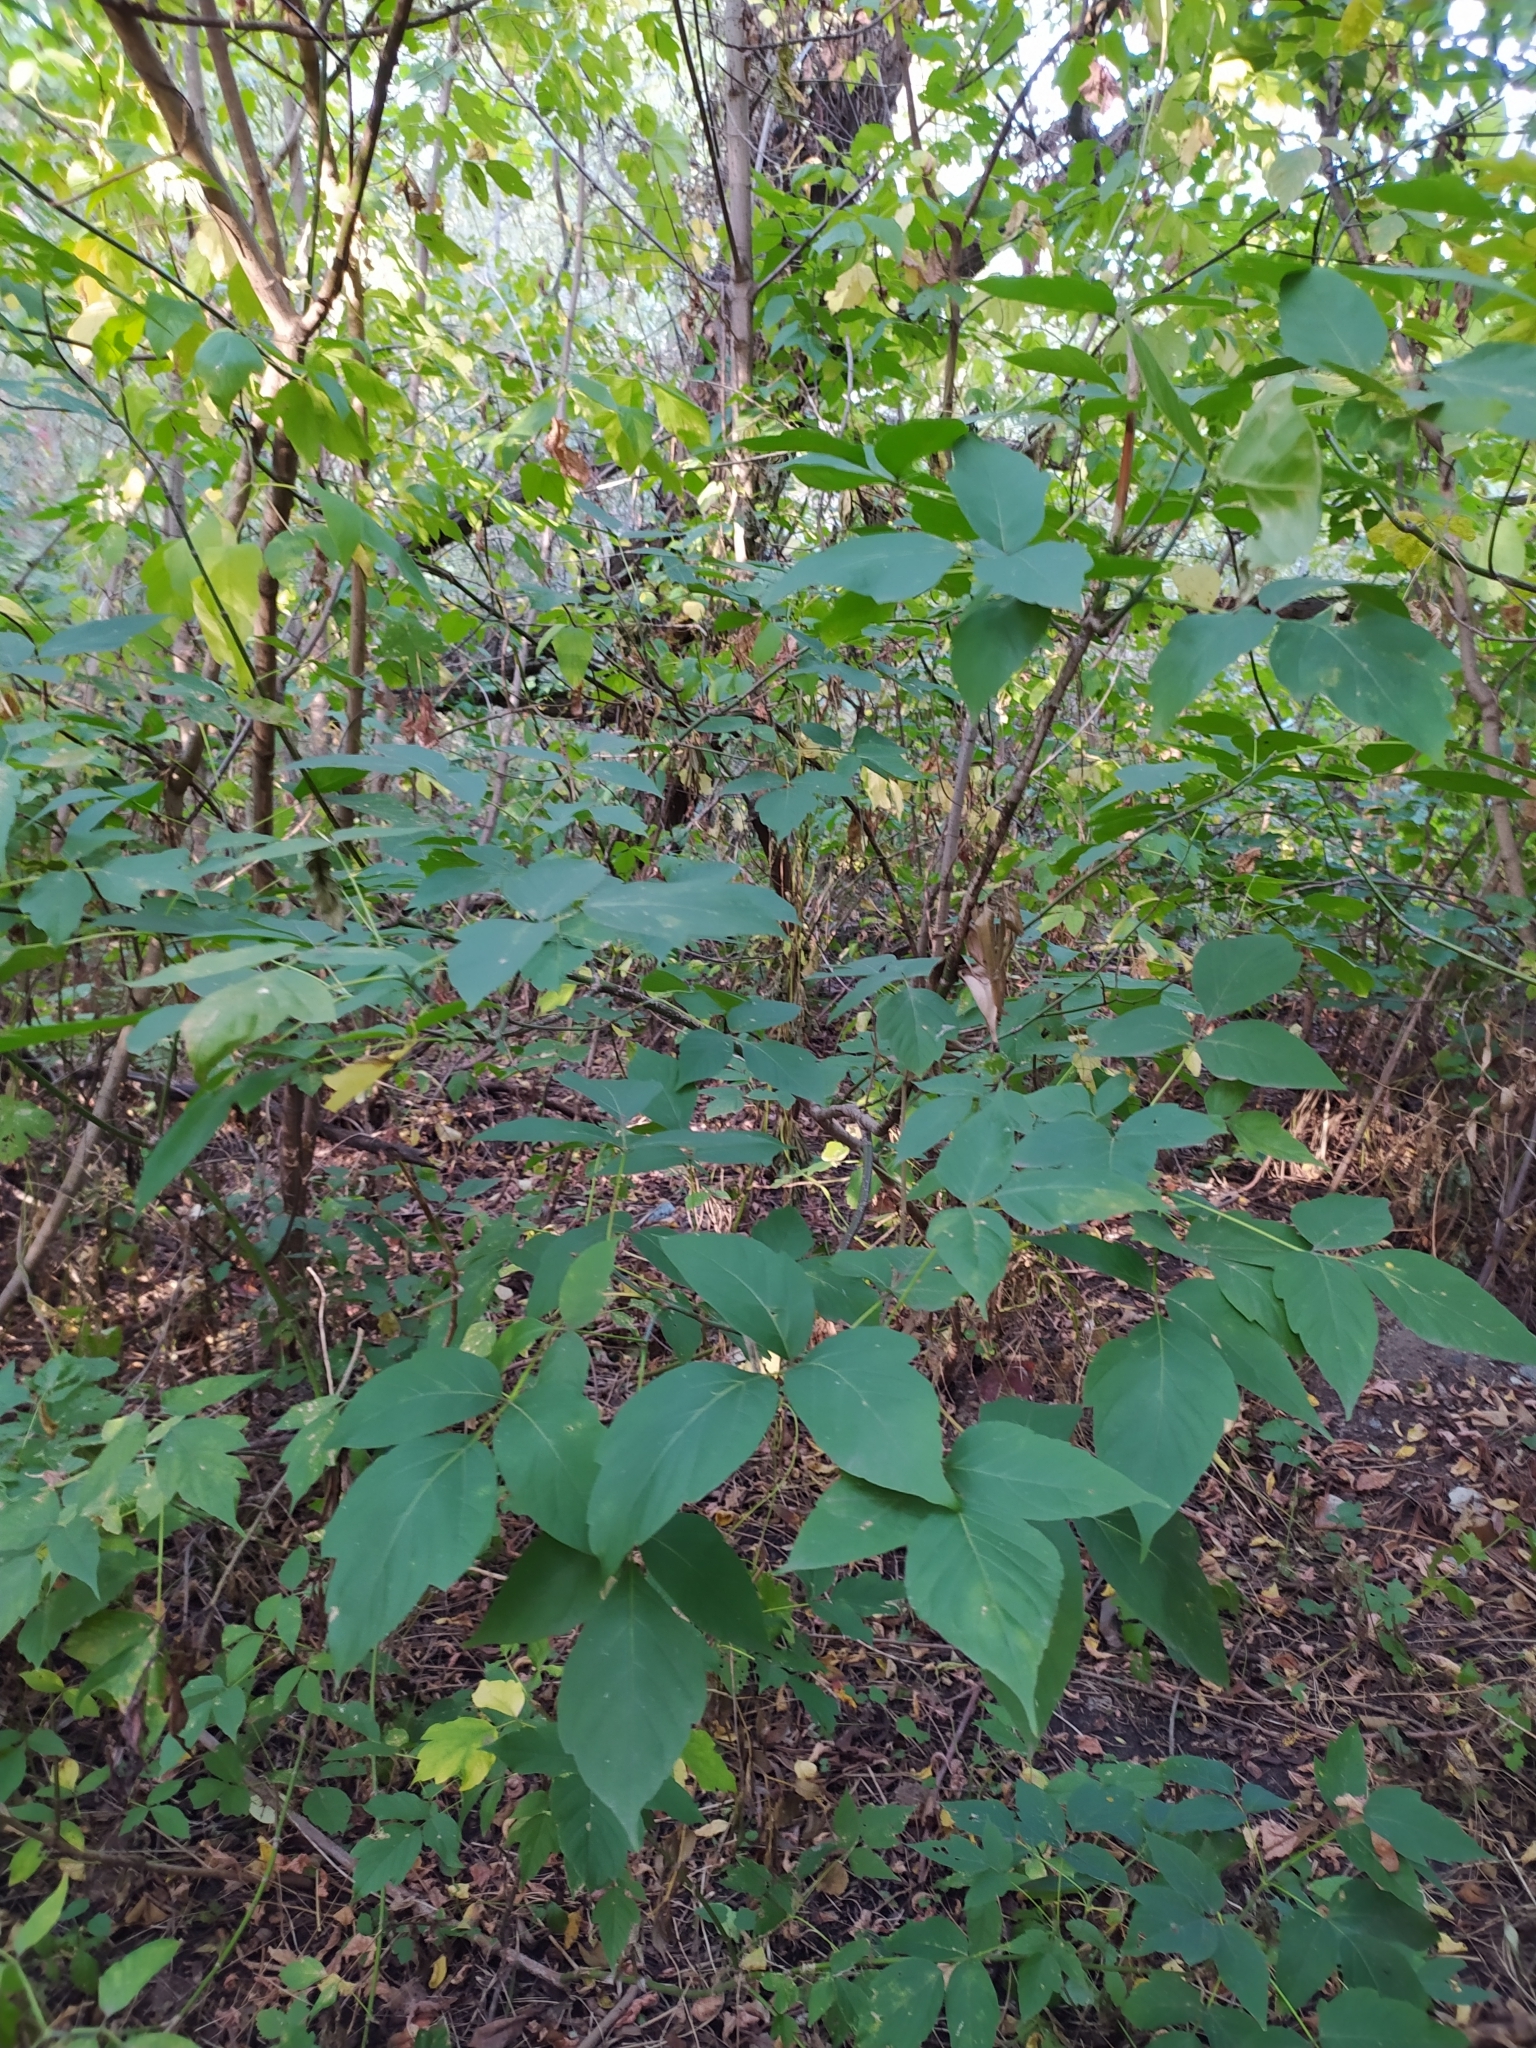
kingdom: Plantae
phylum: Tracheophyta
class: Magnoliopsida
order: Sapindales
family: Sapindaceae
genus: Acer
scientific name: Acer negundo
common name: Ashleaf maple
